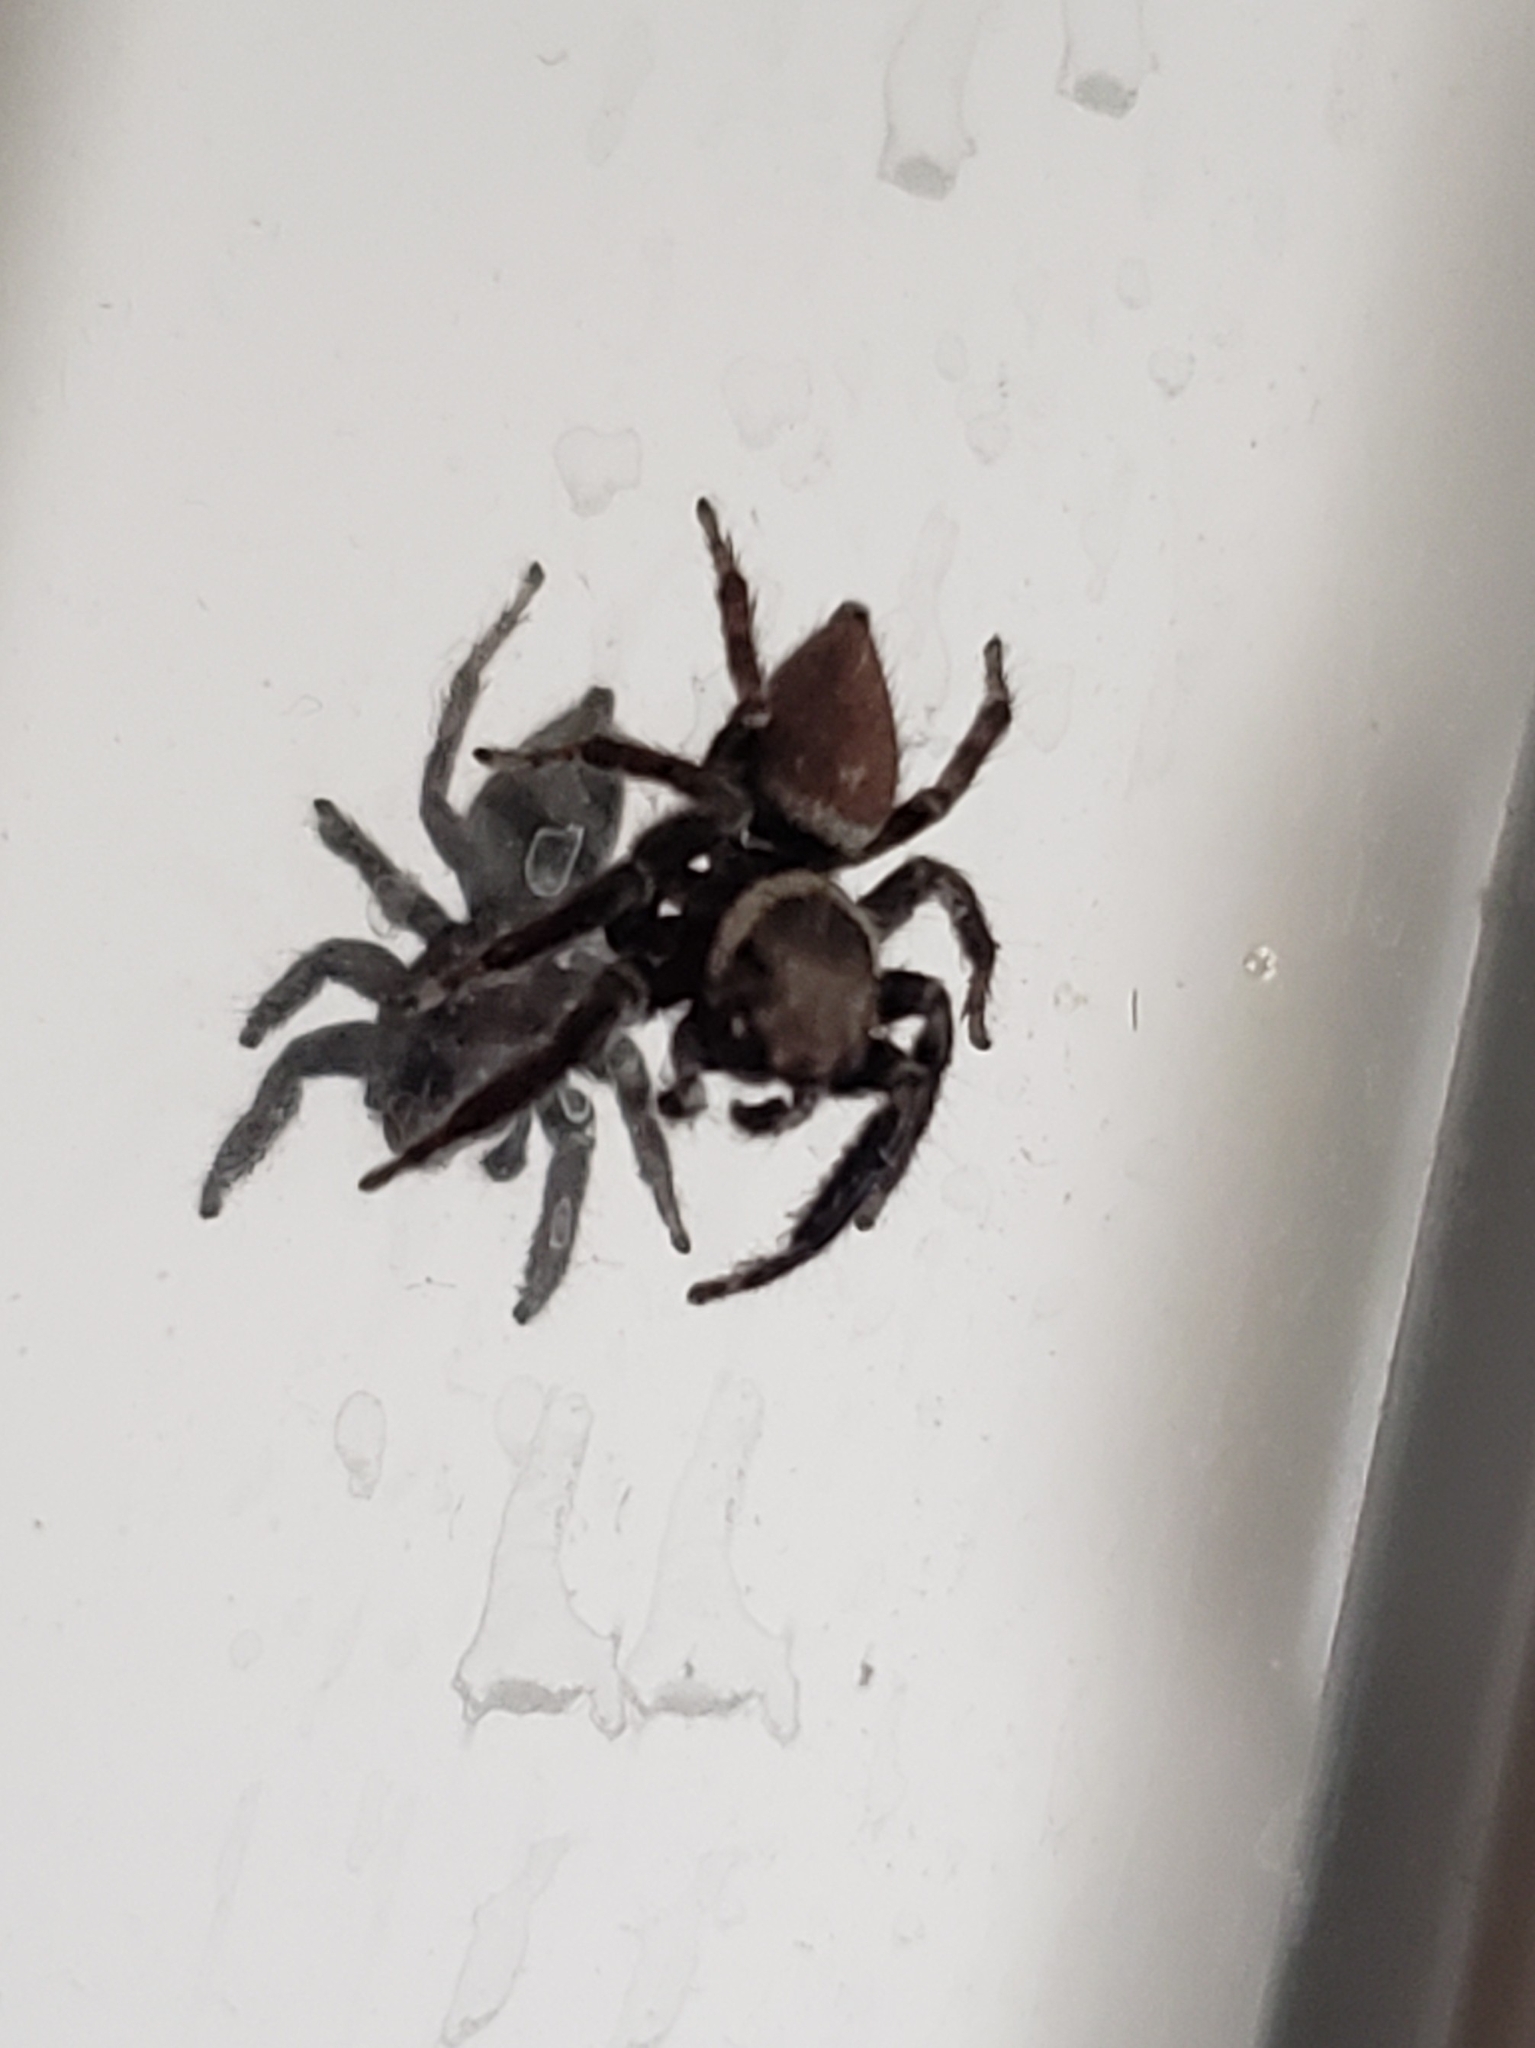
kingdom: Animalia
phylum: Arthropoda
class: Arachnida
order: Araneae
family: Salticidae
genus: Evarcha
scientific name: Evarcha jucunda
